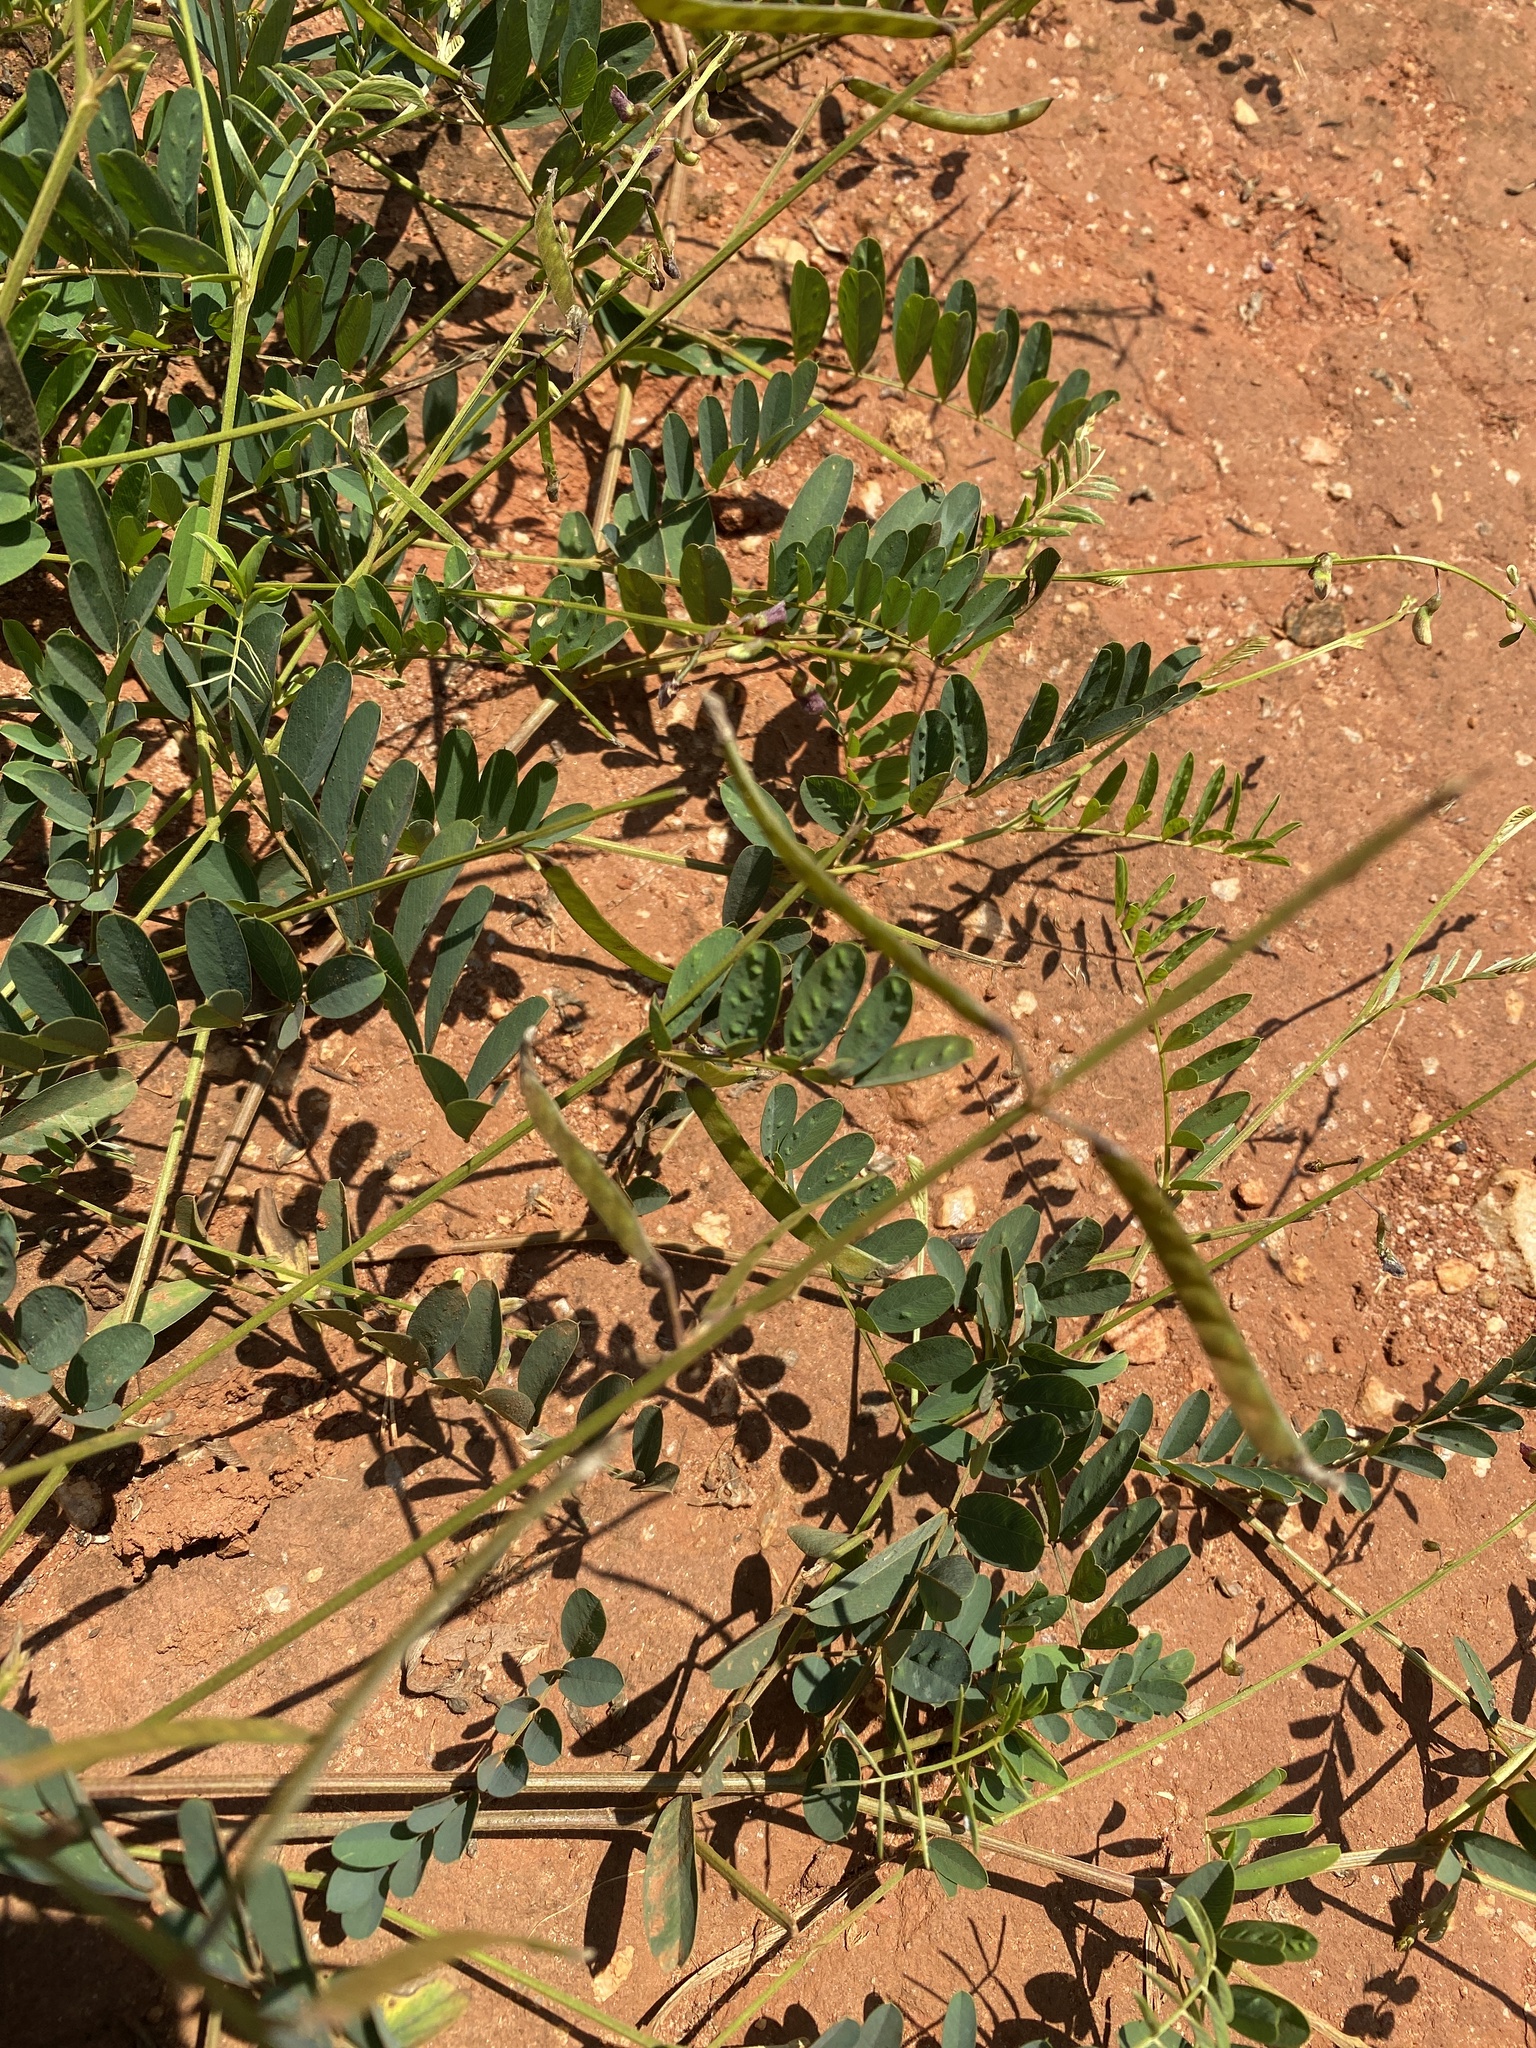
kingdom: Plantae
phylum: Tracheophyta
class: Magnoliopsida
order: Fabales
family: Fabaceae
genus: Tephrosia
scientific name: Tephrosia purpurea
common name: Fishpoison
